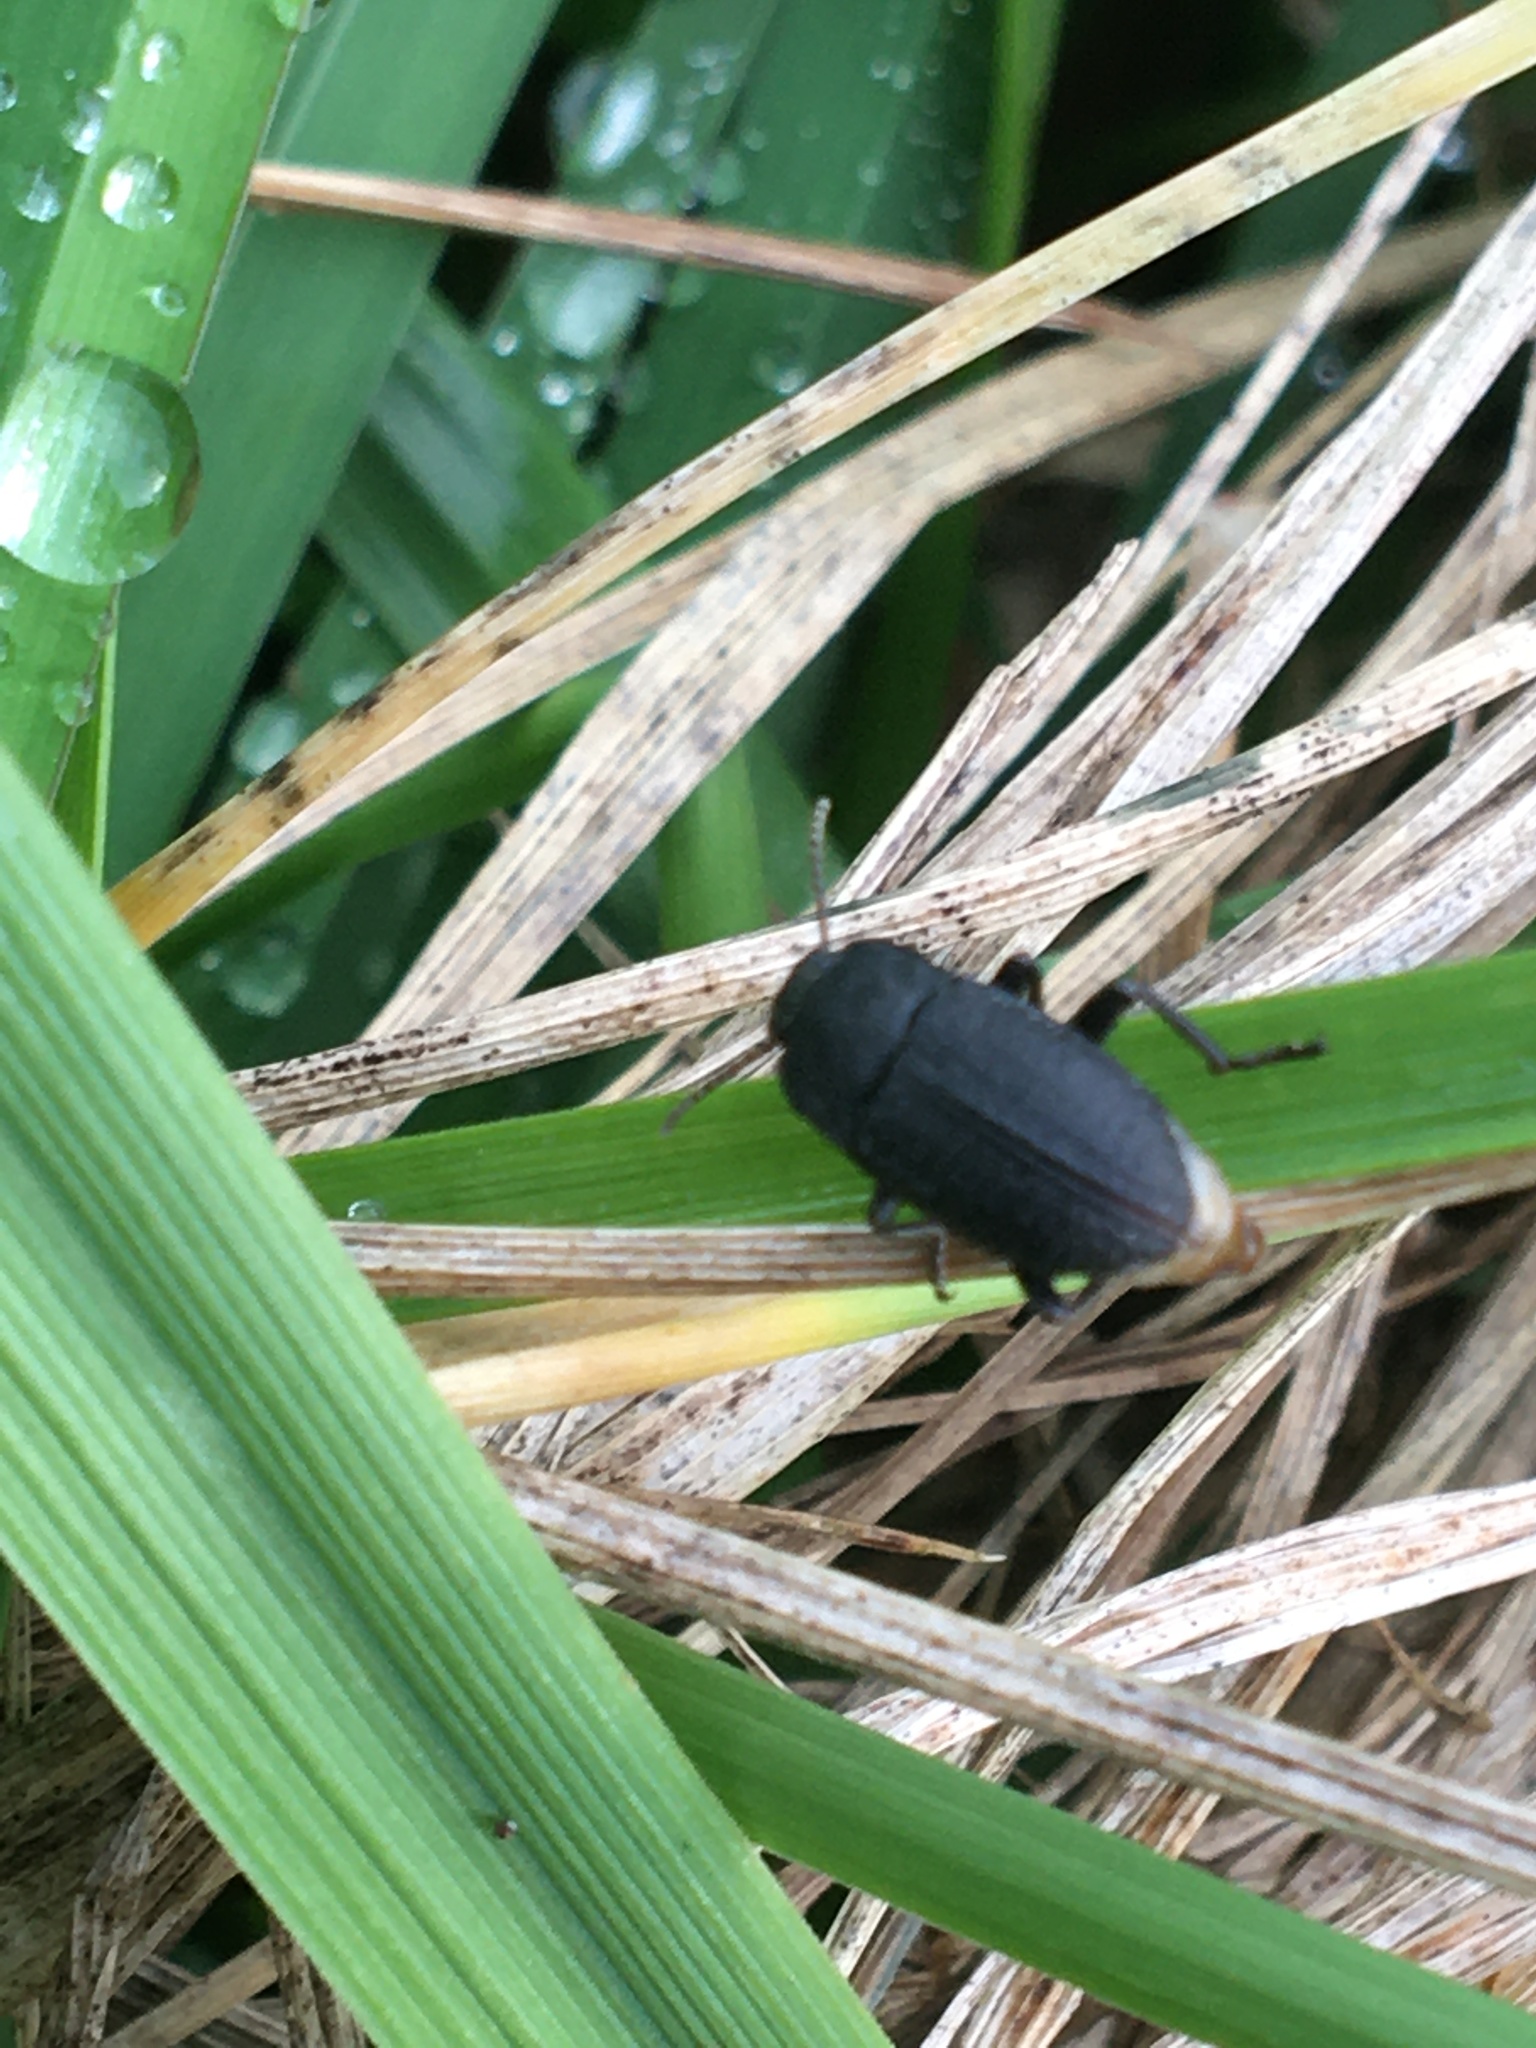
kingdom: Animalia
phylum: Arthropoda
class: Insecta
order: Coleoptera
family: Tenebrionidae
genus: Asiopus
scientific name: Asiopus
